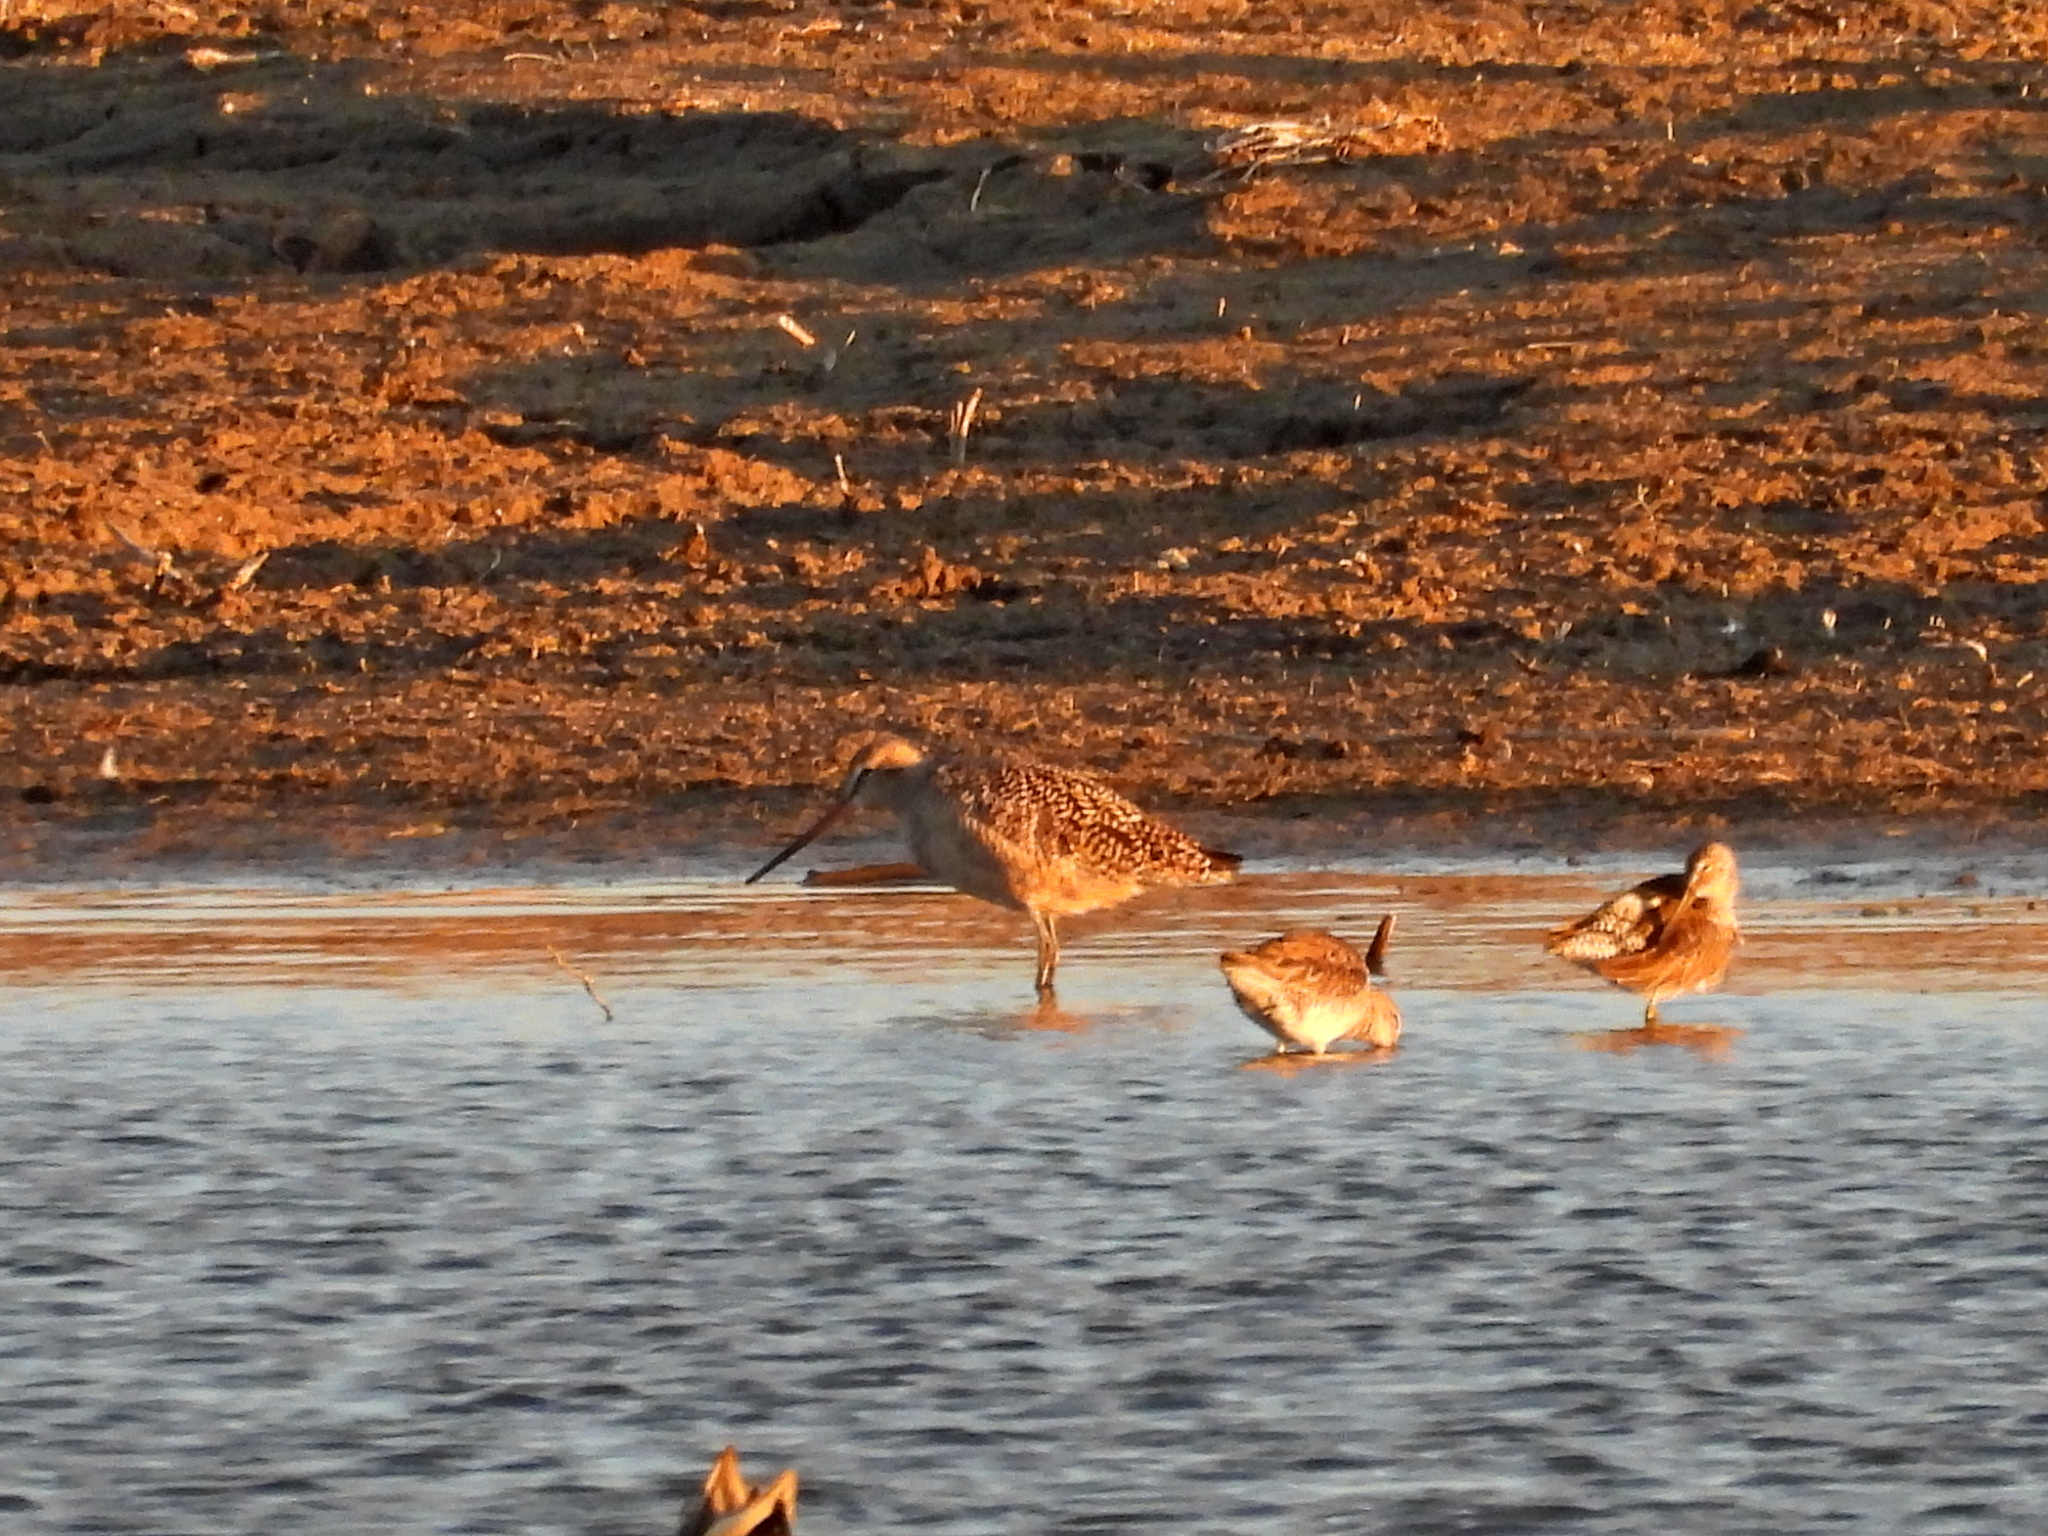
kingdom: Animalia
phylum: Chordata
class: Aves
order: Charadriiformes
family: Scolopacidae
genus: Limosa
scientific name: Limosa fedoa
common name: Marbled godwit
